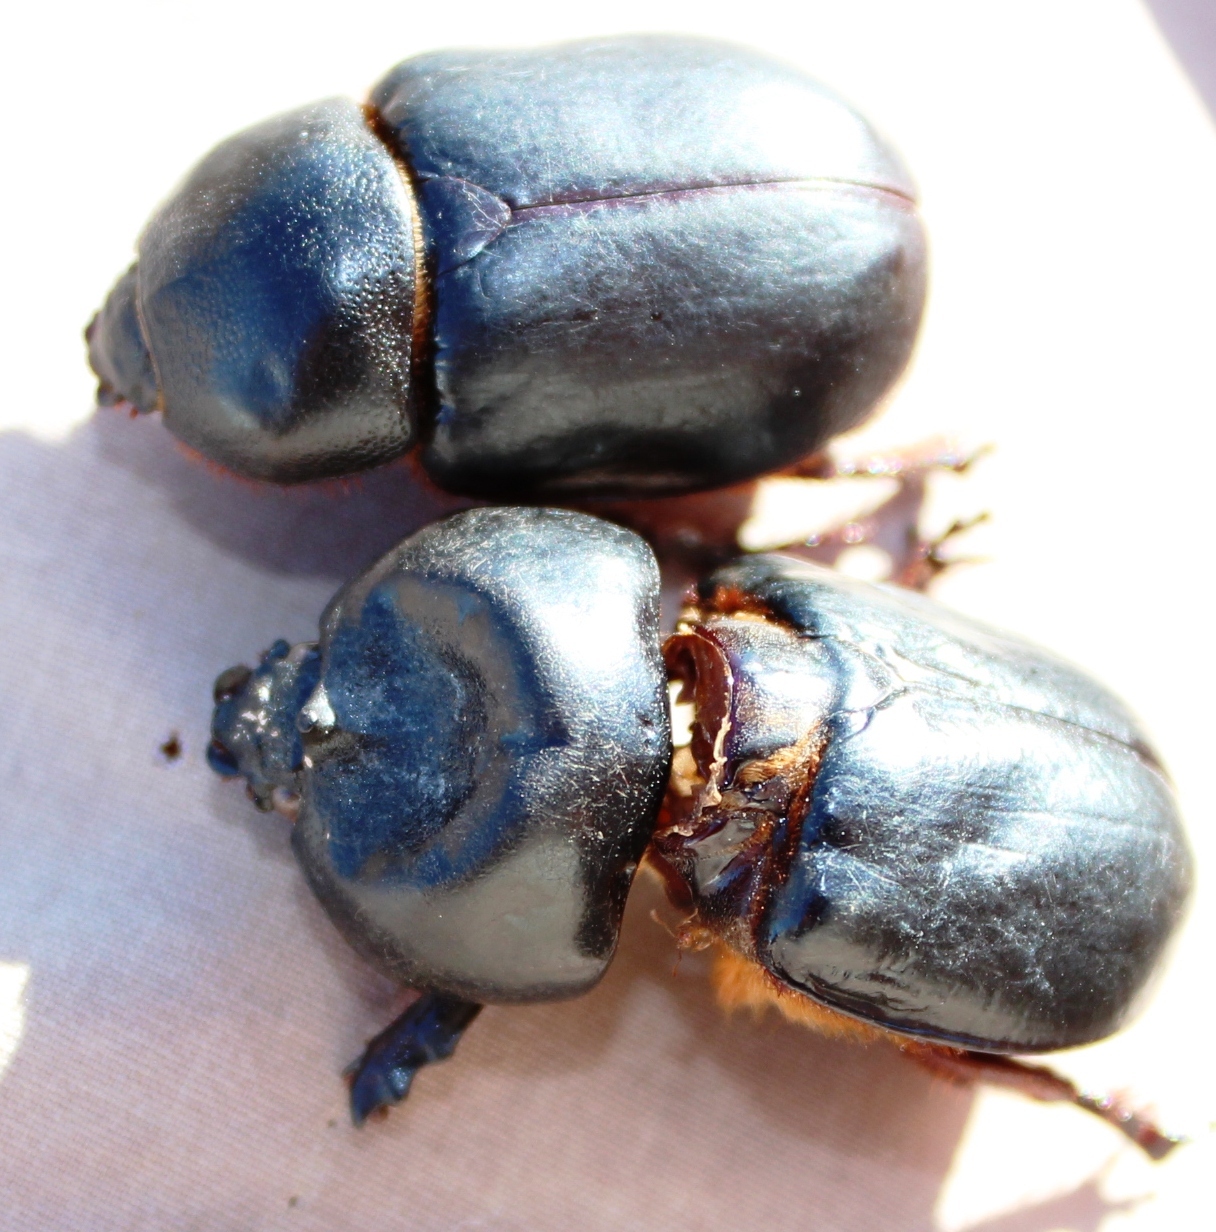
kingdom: Animalia
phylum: Arthropoda
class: Insecta
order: Coleoptera
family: Scarabaeidae
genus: Orsilochus
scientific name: Orsilochus cornutus
